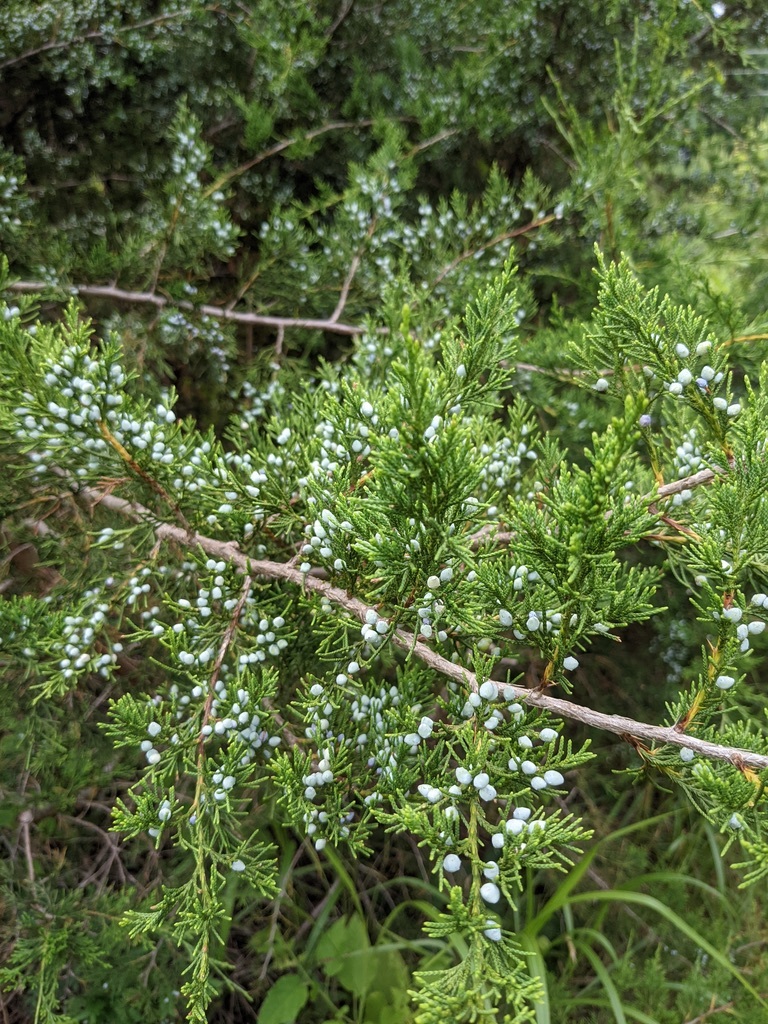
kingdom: Plantae
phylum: Tracheophyta
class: Pinopsida
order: Pinales
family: Cupressaceae
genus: Juniperus
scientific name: Juniperus virginiana
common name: Red juniper
